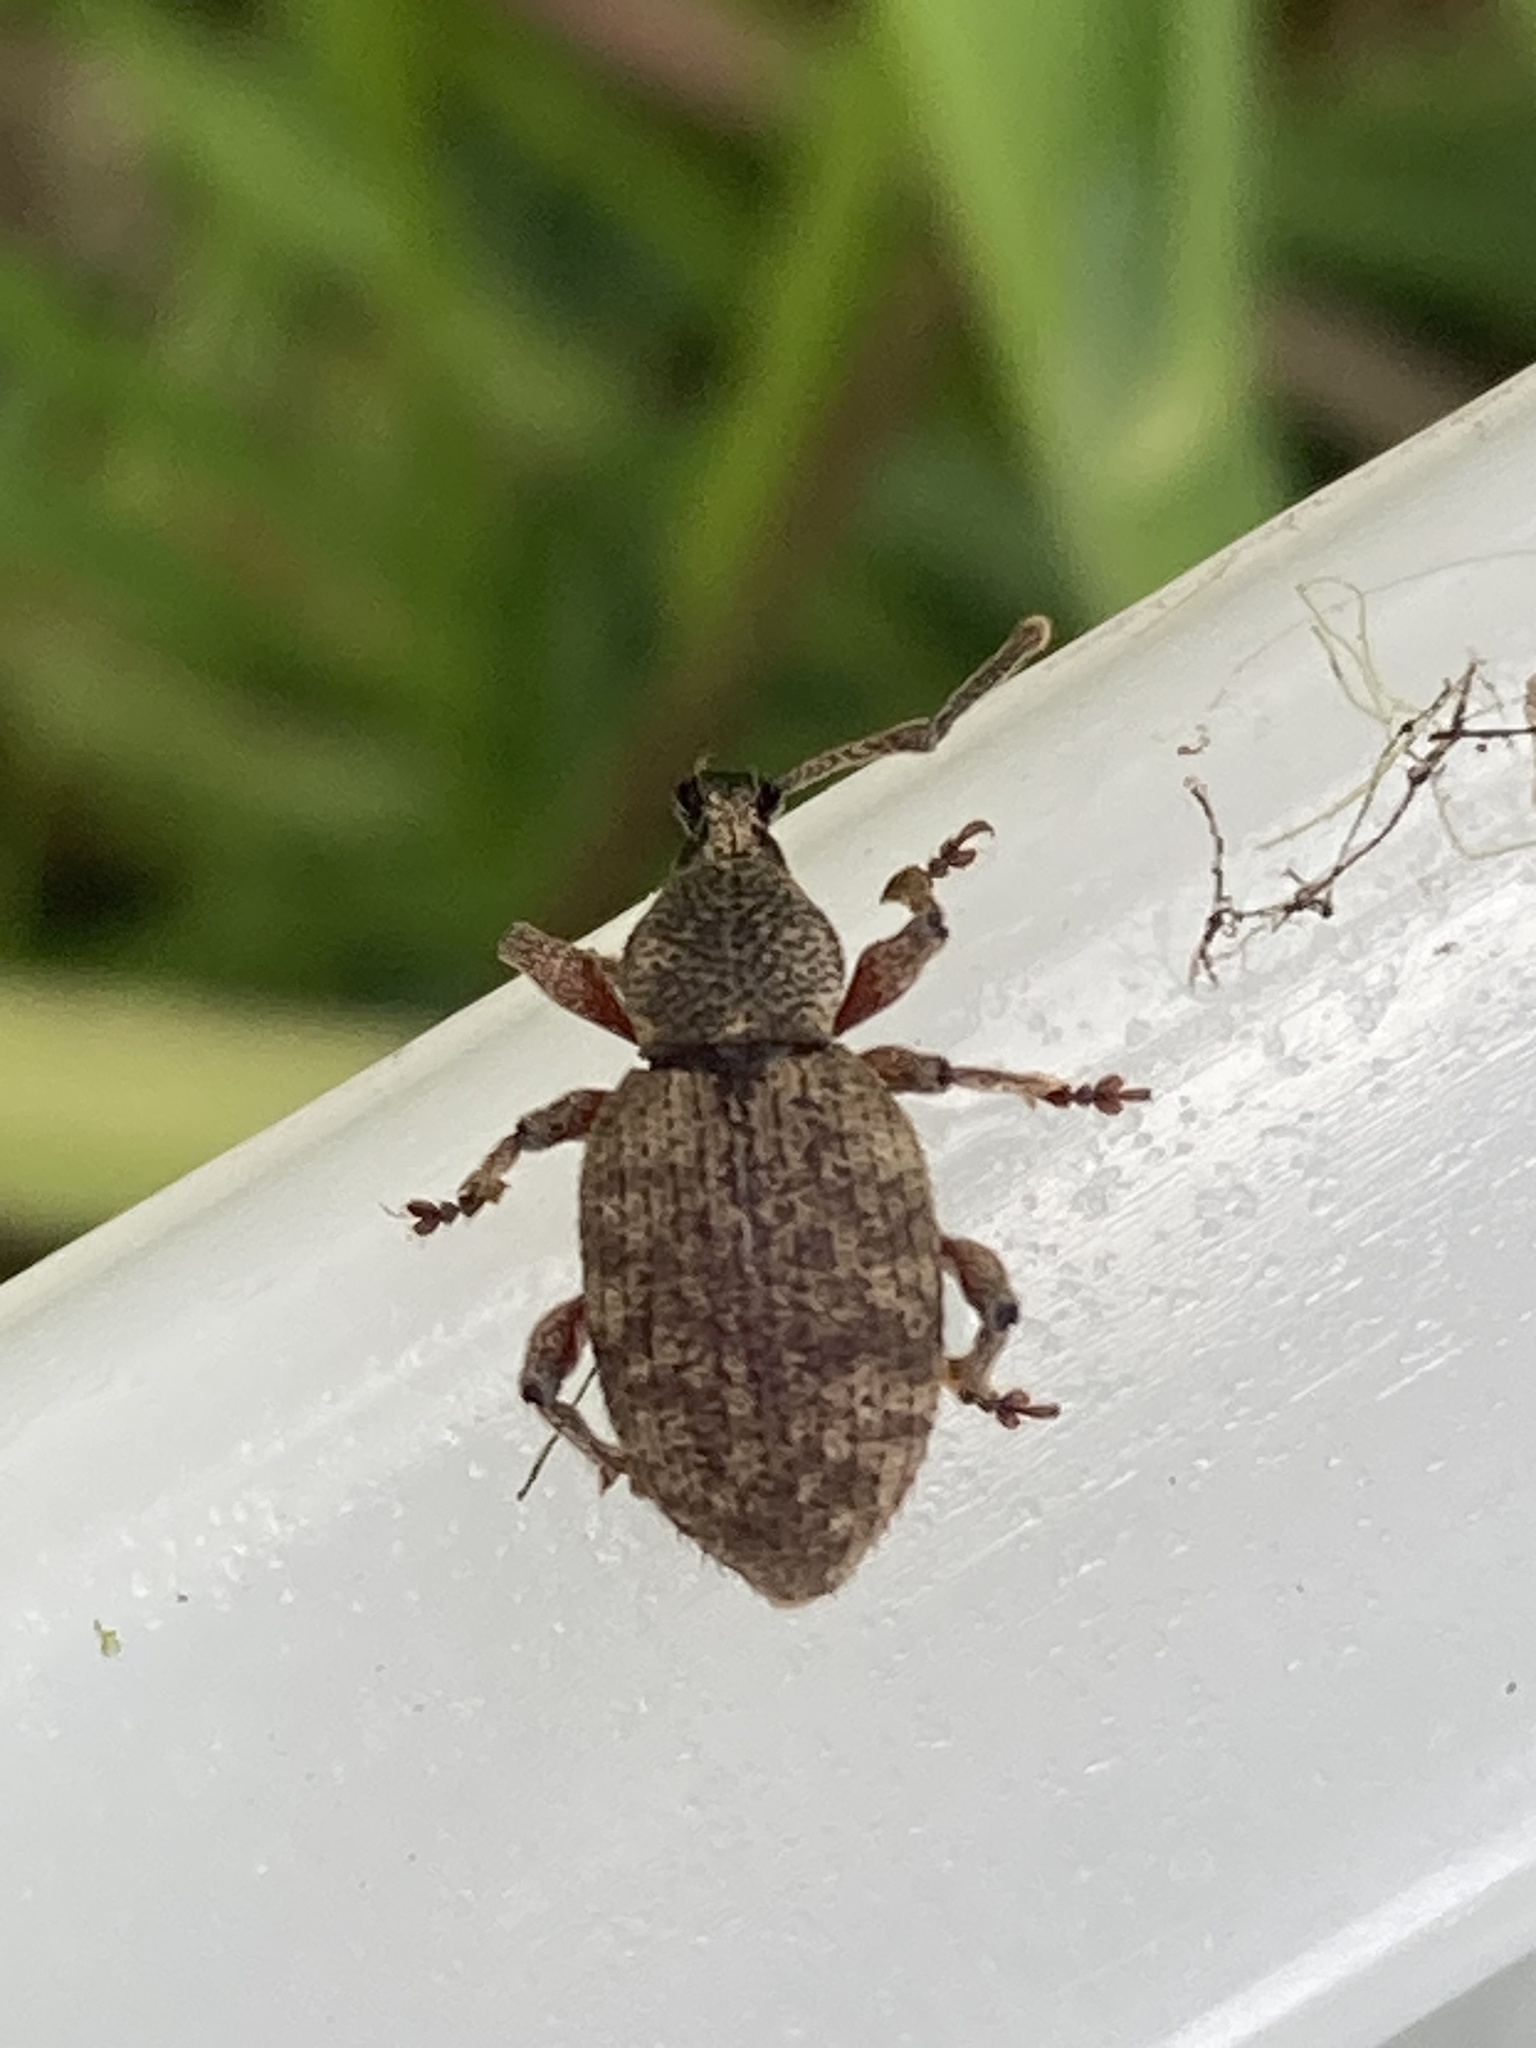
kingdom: Animalia
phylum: Arthropoda
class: Insecta
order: Coleoptera
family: Curculionidae
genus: Otiorhynchus
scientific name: Otiorhynchus singularis
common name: Clay-coloured weevil
